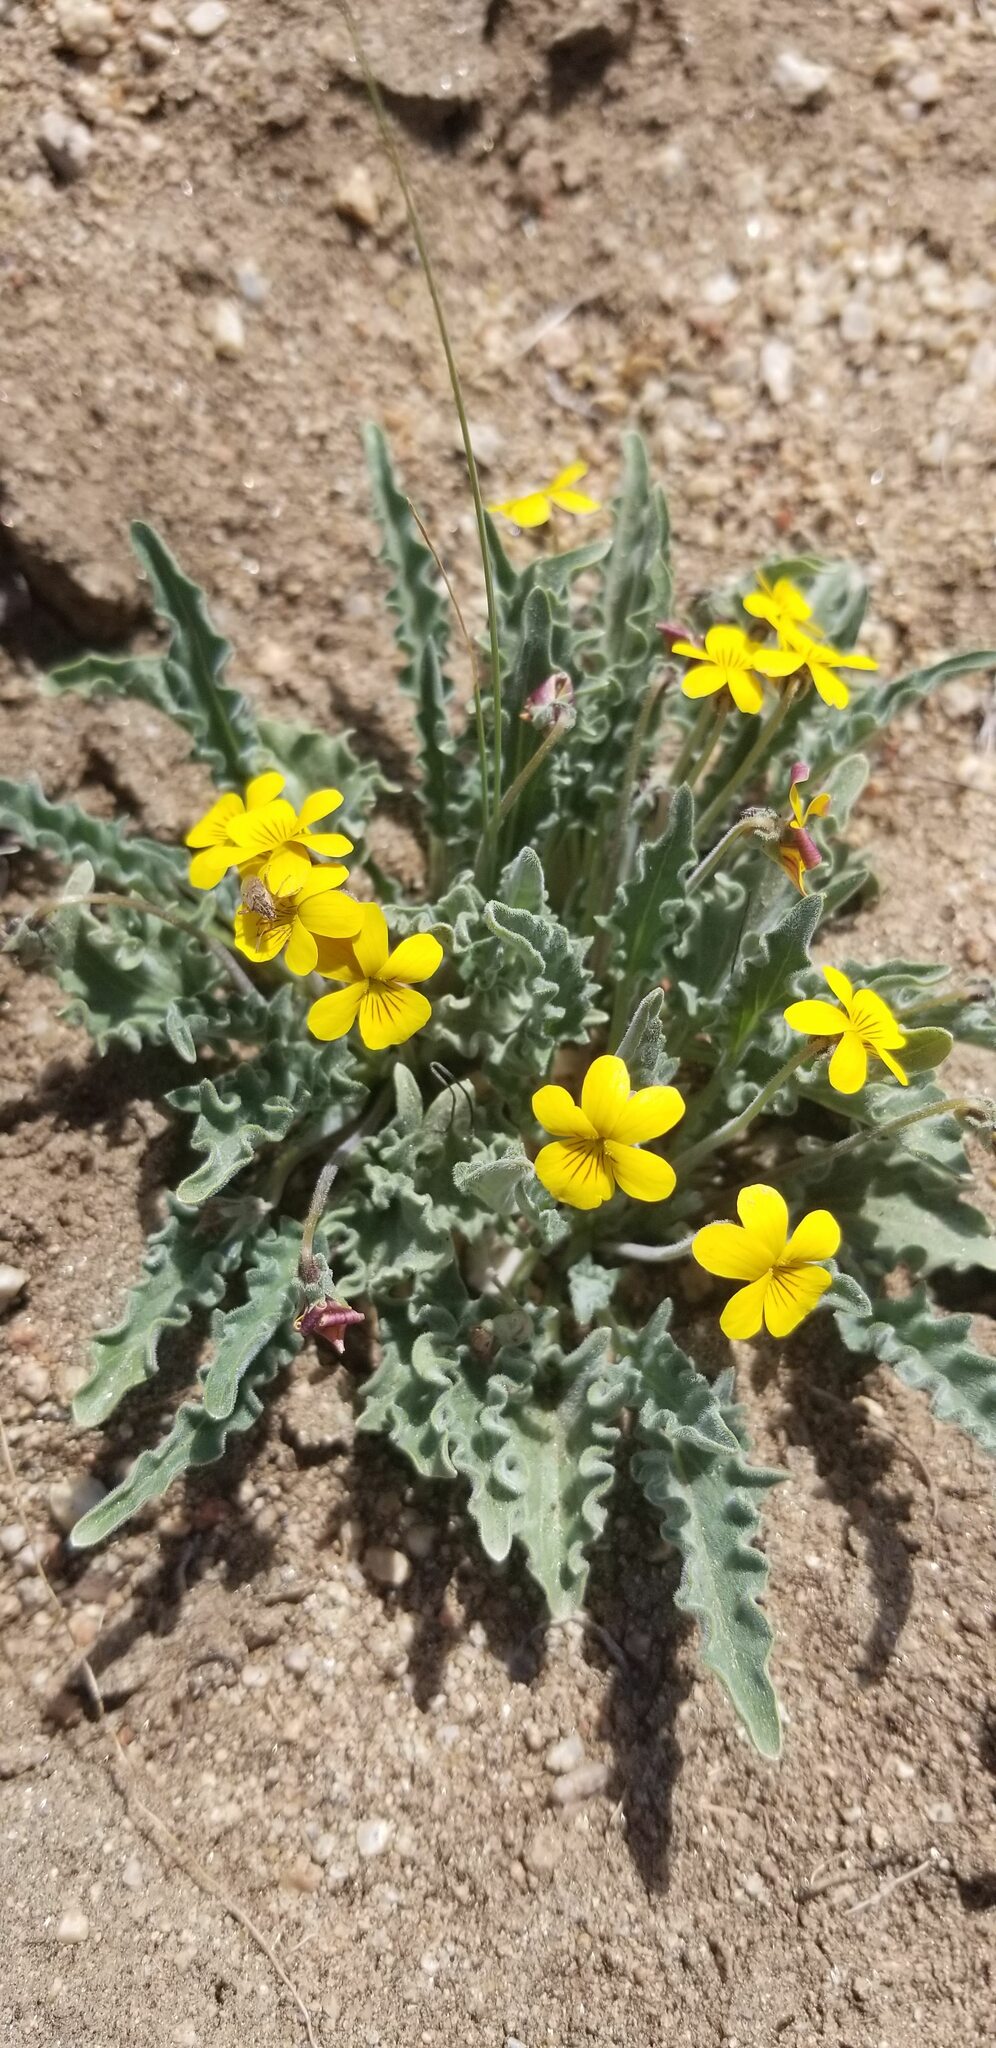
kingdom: Plantae
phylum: Tracheophyta
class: Magnoliopsida
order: Malpighiales
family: Violaceae
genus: Viola
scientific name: Viola pinetorum
